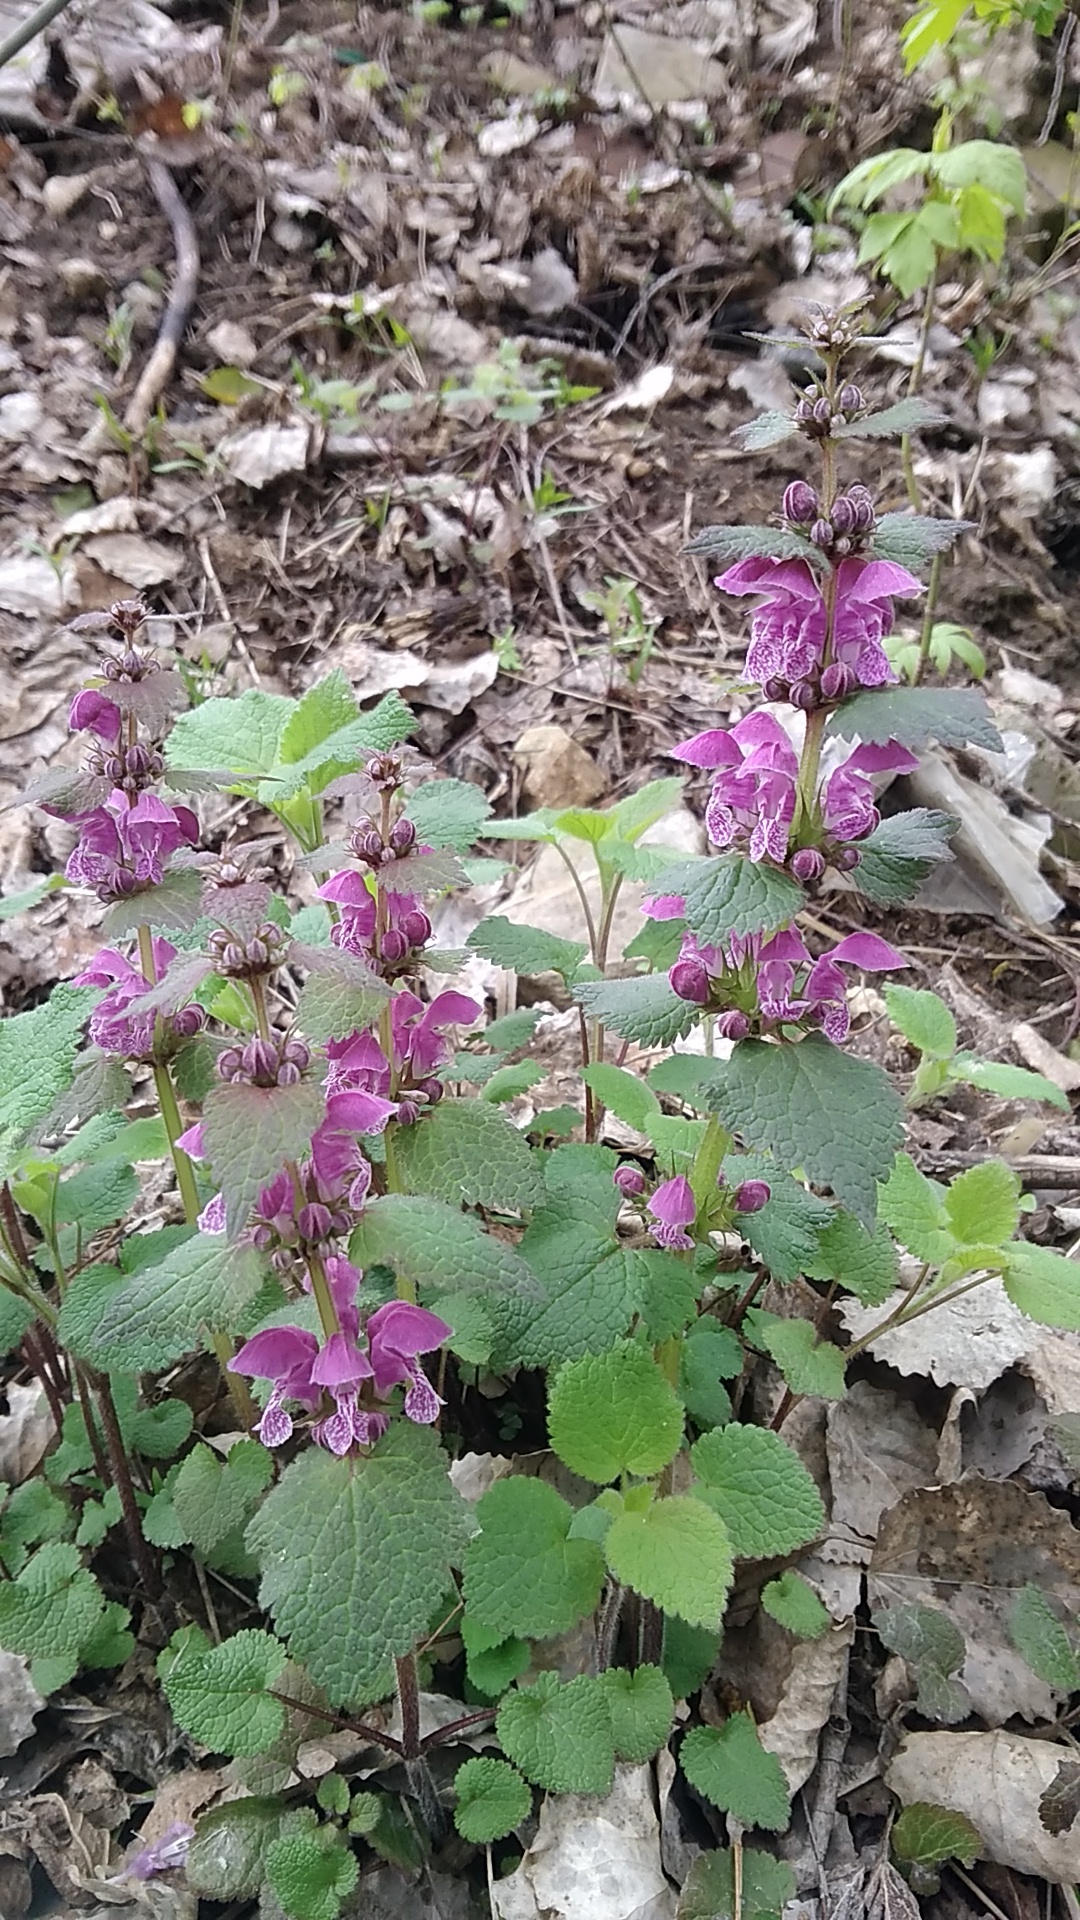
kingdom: Plantae
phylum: Tracheophyta
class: Magnoliopsida
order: Lamiales
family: Lamiaceae
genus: Lamium
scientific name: Lamium maculatum
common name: Spotted dead-nettle
